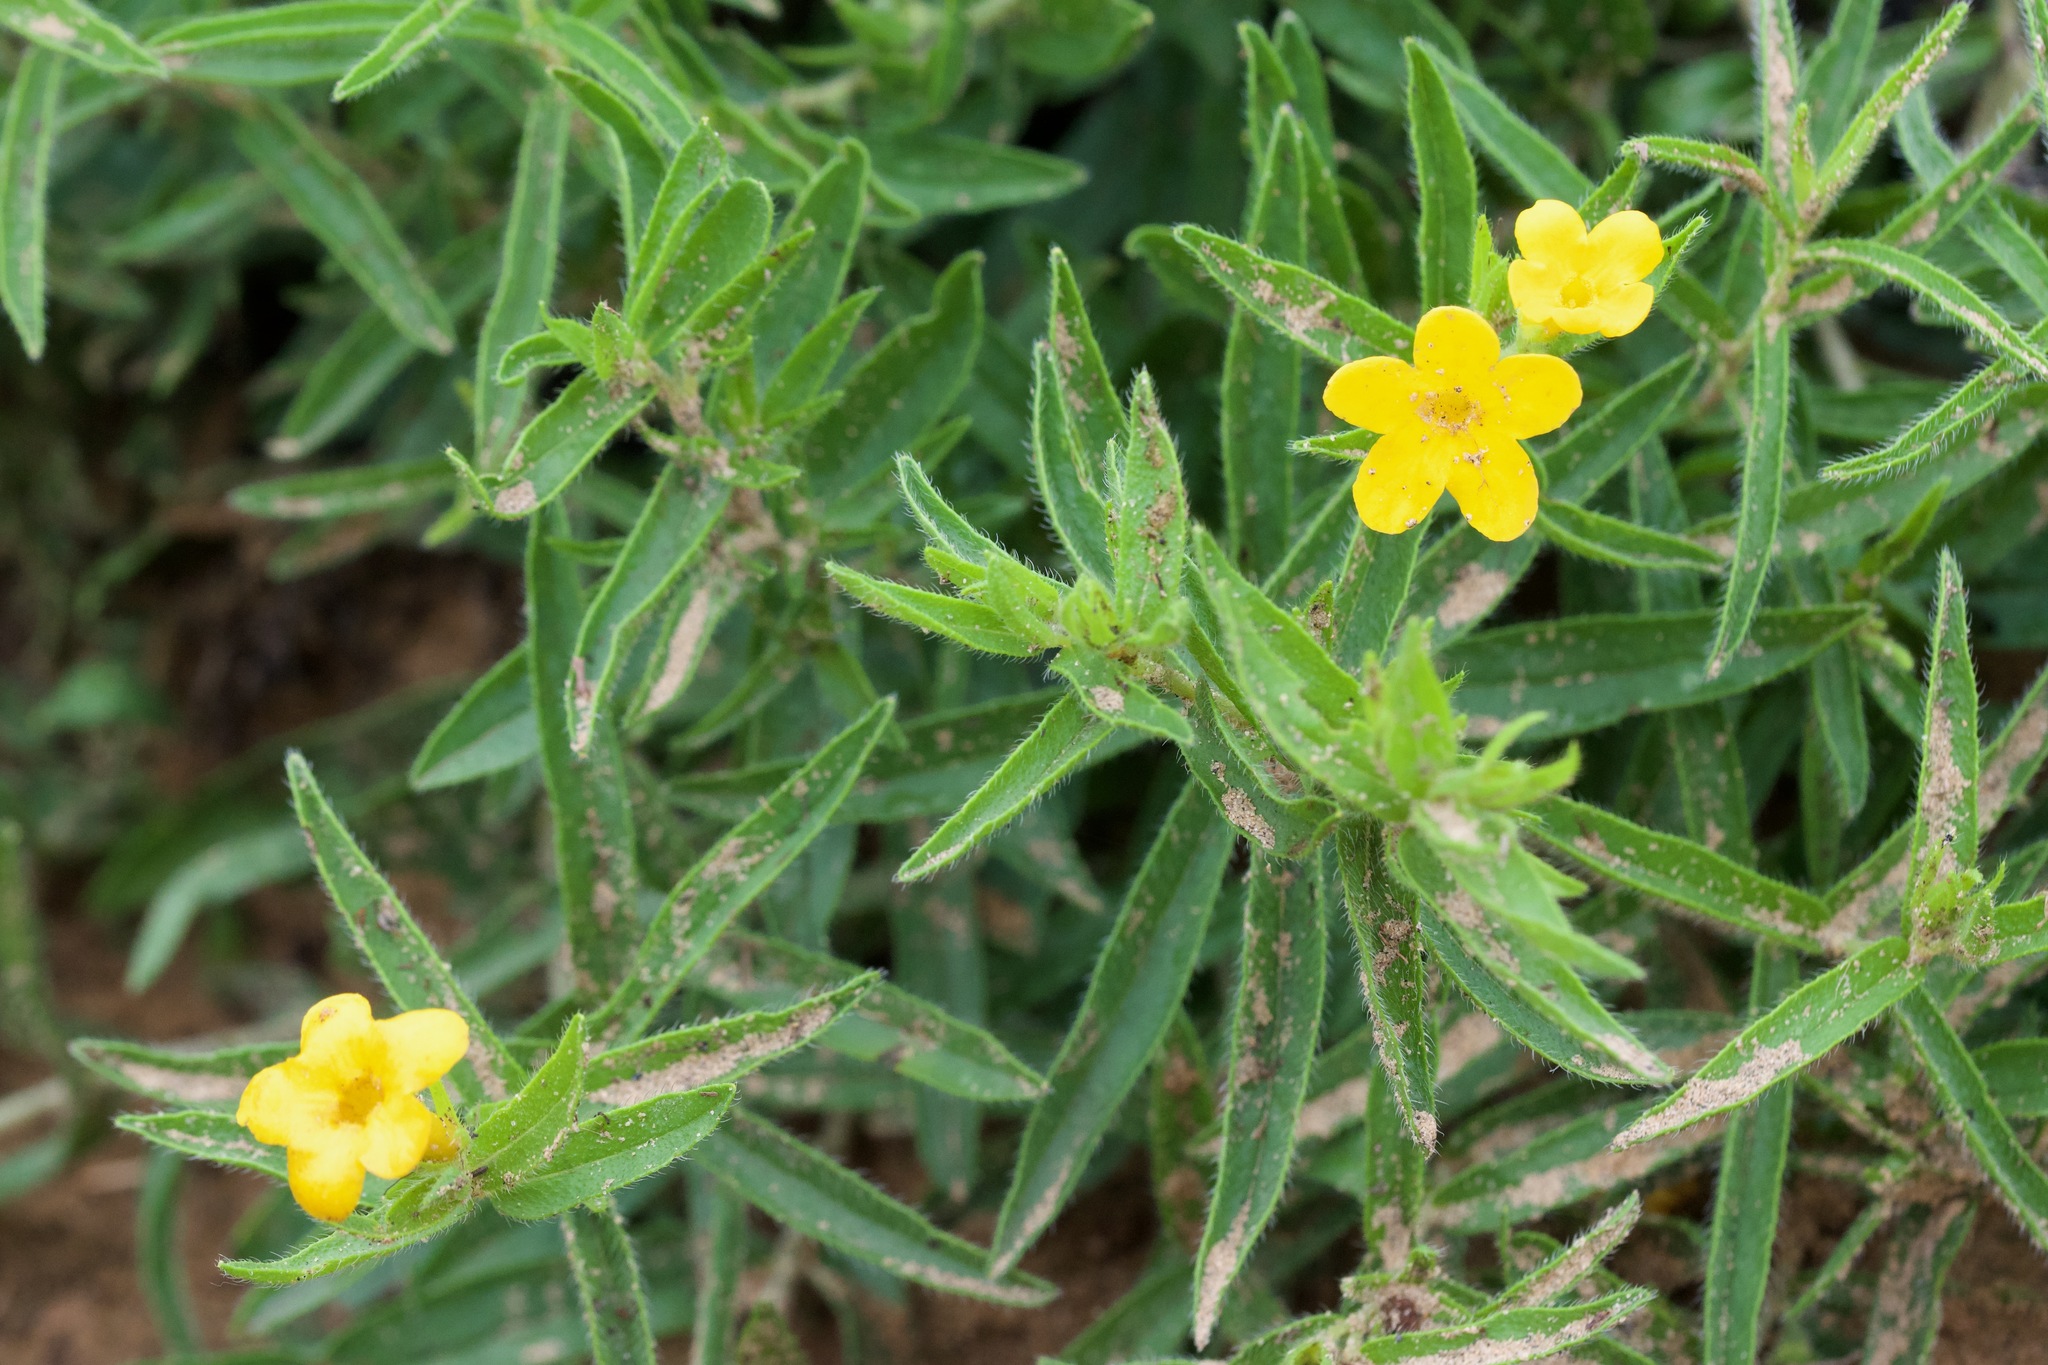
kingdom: Plantae
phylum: Tracheophyta
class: Magnoliopsida
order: Boraginales
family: Boraginaceae
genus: Lithospermum
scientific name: Lithospermum caroliniense
